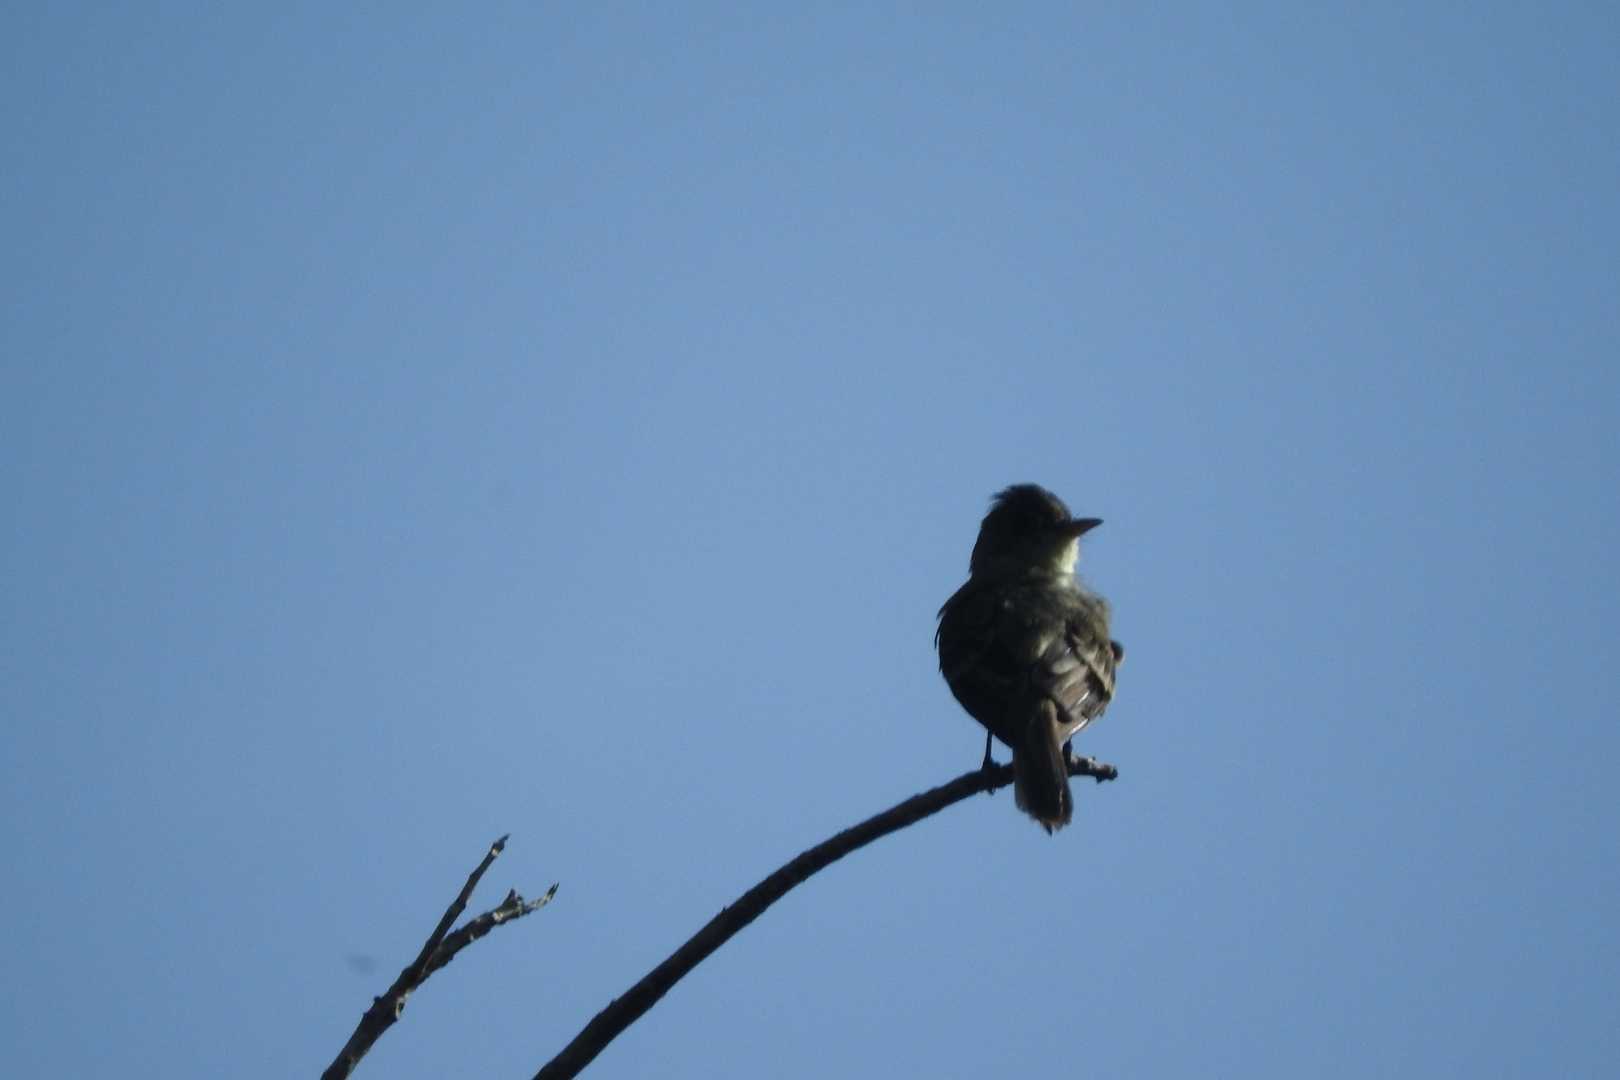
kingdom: Animalia
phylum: Chordata
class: Aves
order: Passeriformes
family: Tyrannidae
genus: Elaenia
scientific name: Elaenia flavogaster
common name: Yellow-bellied elaenia
